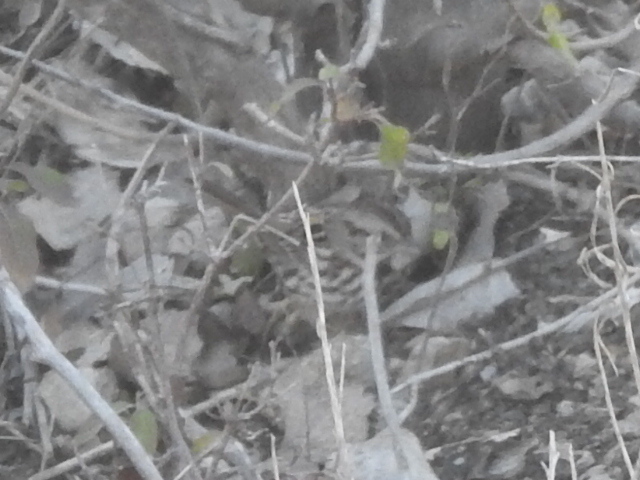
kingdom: Animalia
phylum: Chordata
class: Aves
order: Passeriformes
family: Passerellidae
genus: Melospiza
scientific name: Melospiza melodia
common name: Song sparrow
